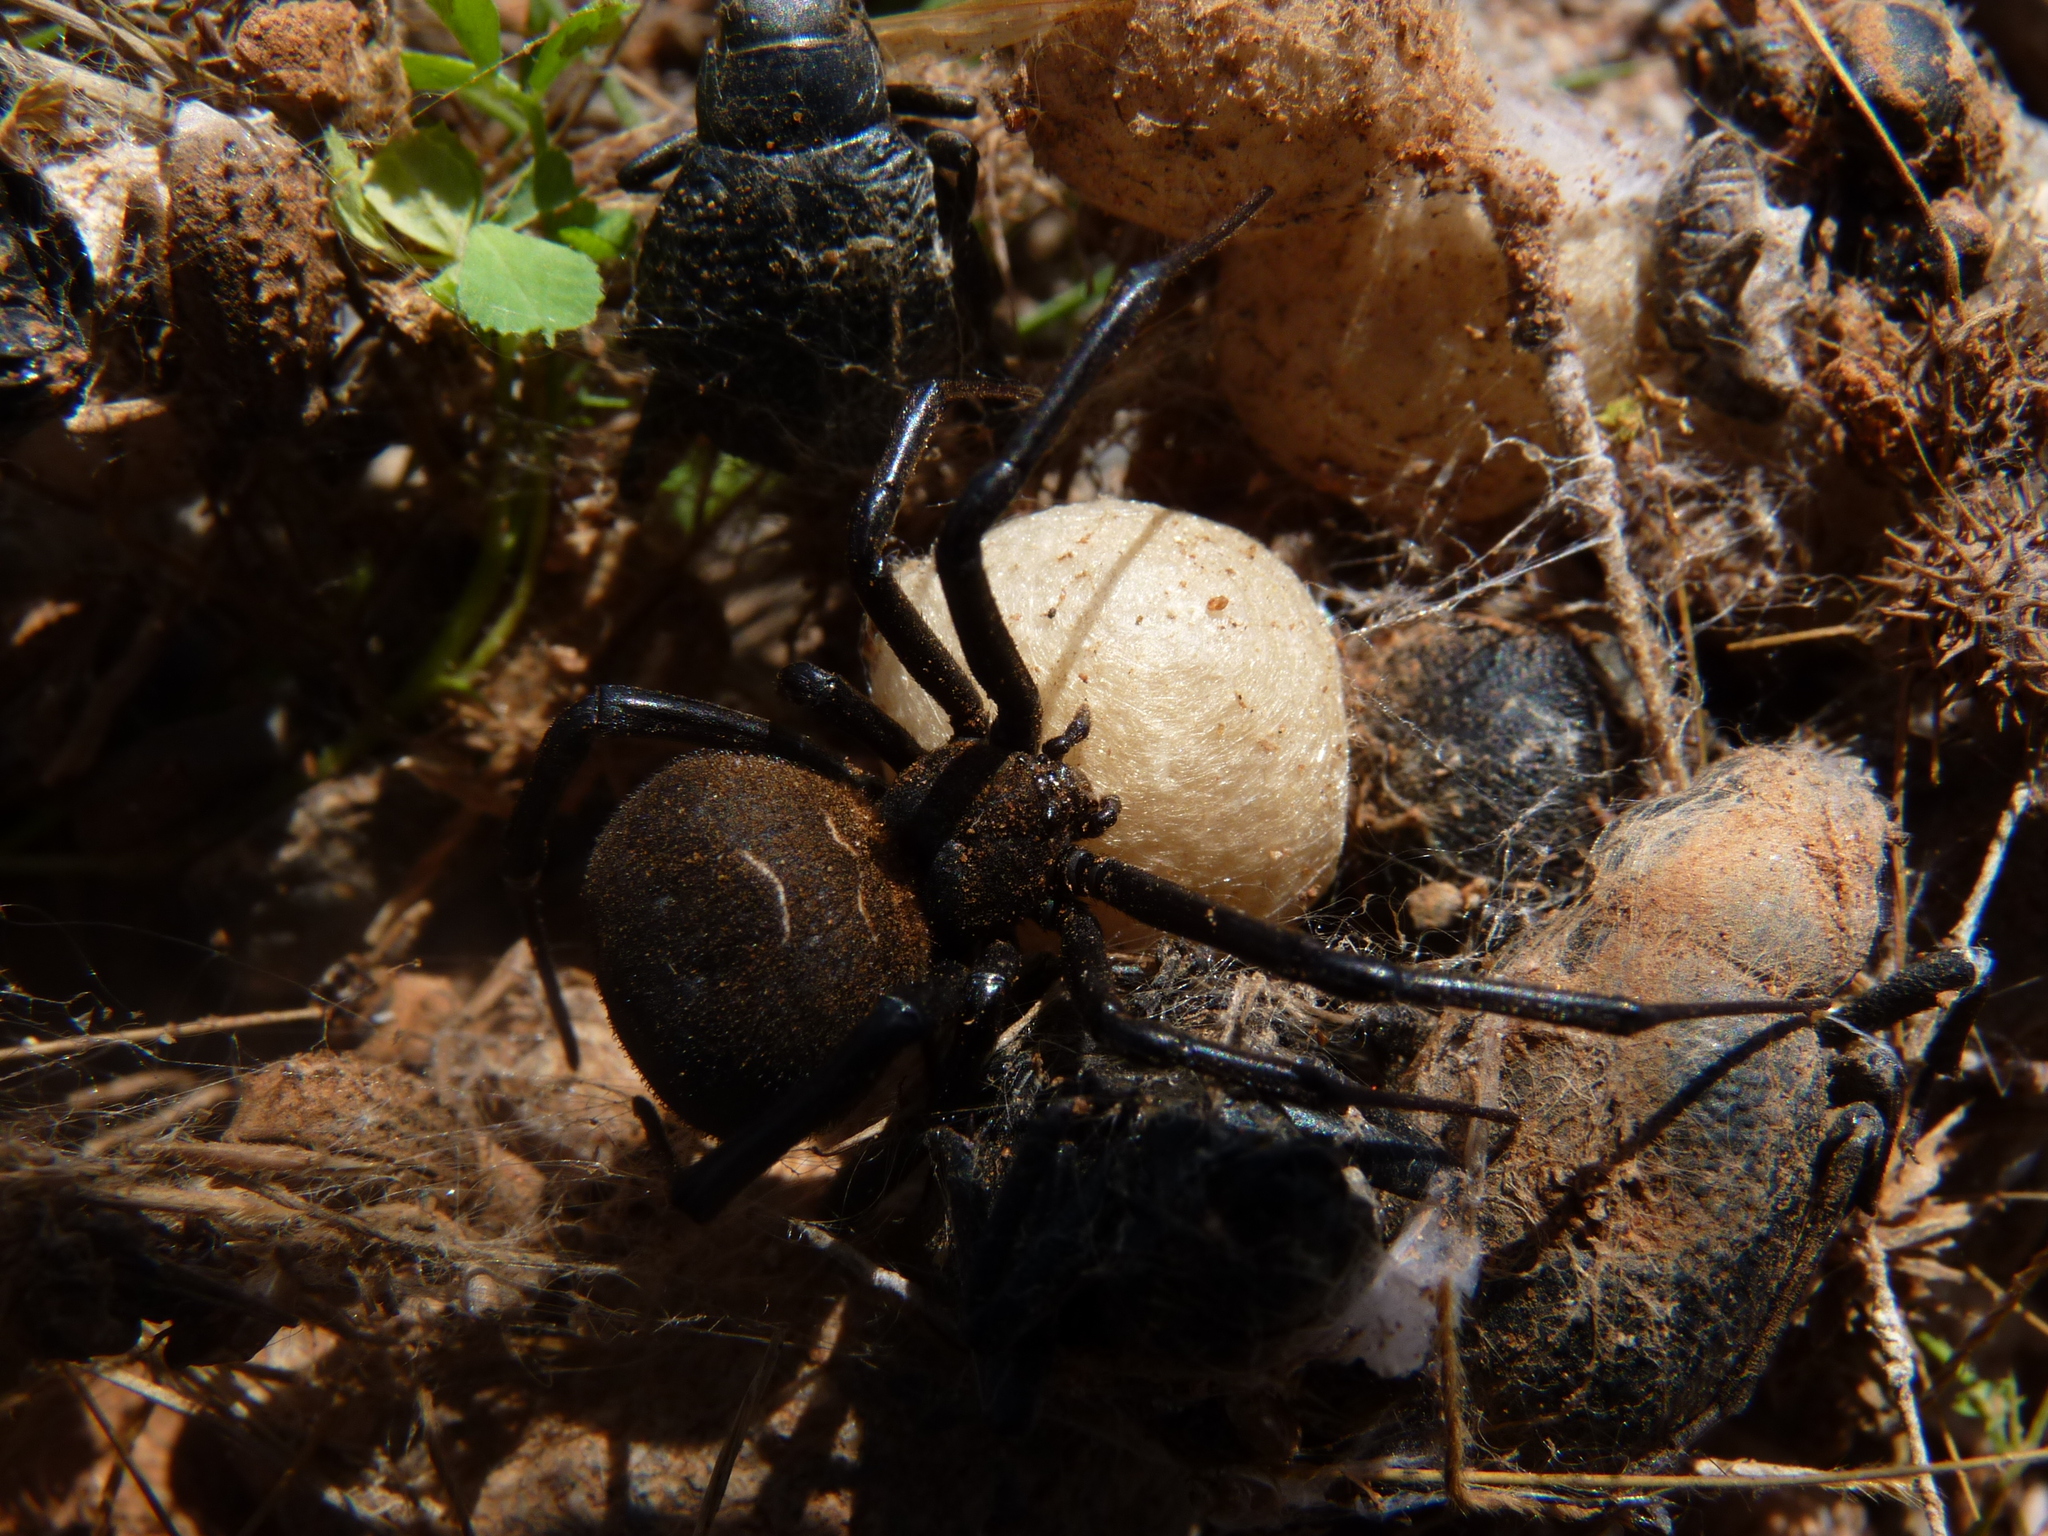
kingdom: Animalia
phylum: Arthropoda
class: Arachnida
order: Araneae
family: Theridiidae
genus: Latrodectus
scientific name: Latrodectus tredecimguttatus
